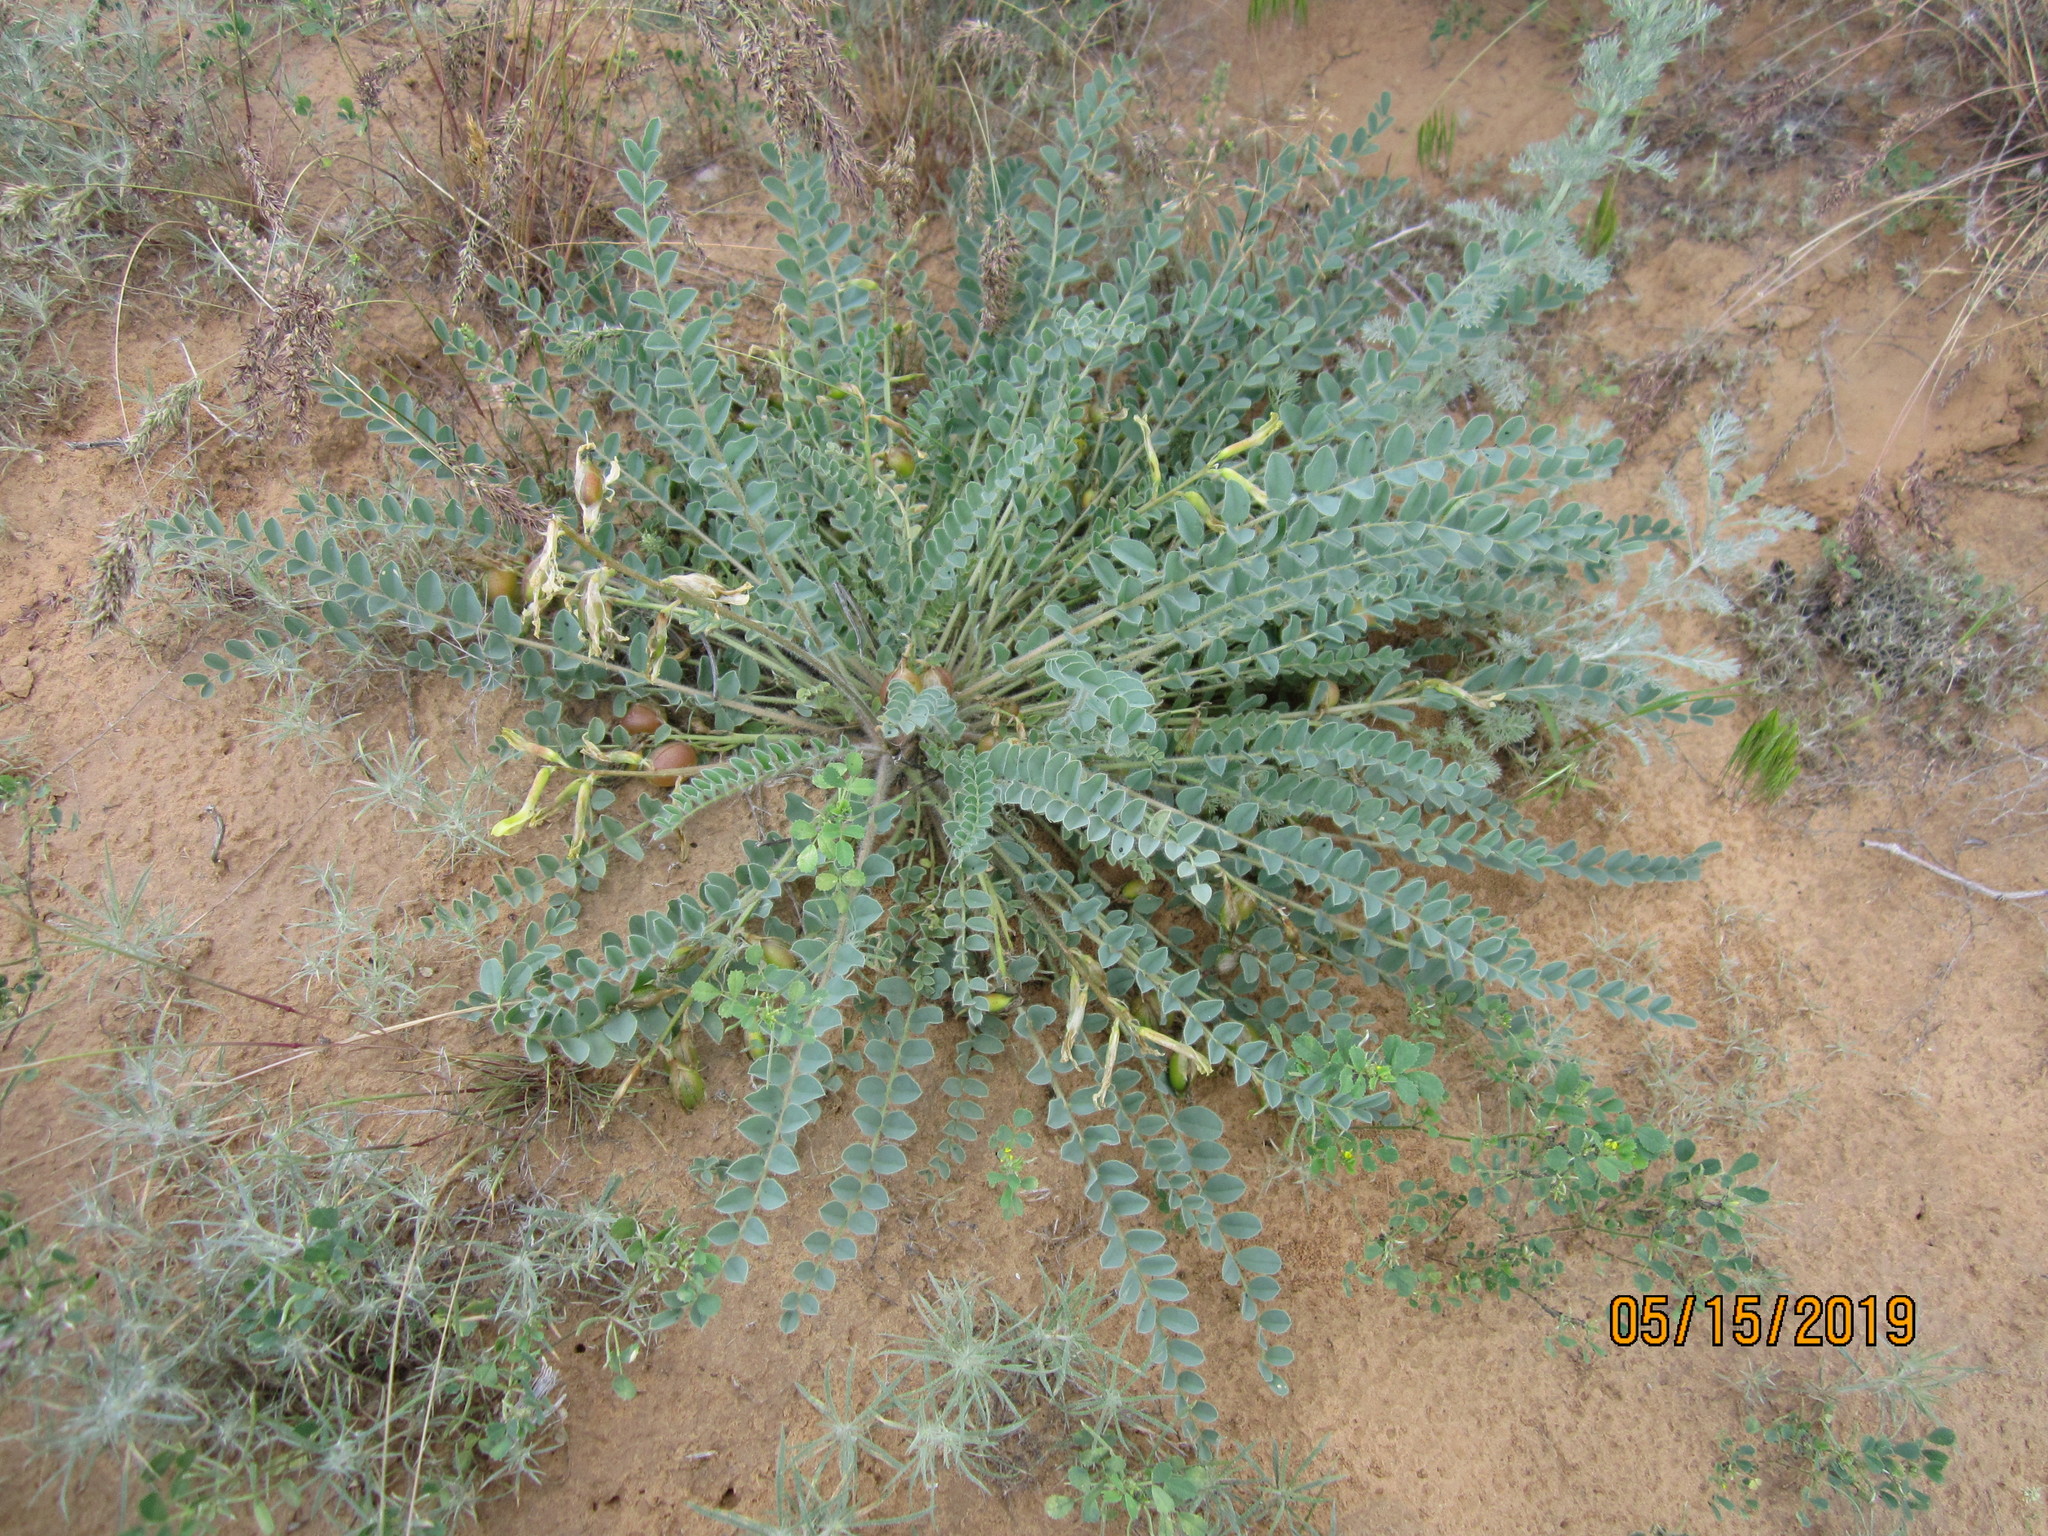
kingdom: Plantae
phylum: Tracheophyta
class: Magnoliopsida
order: Fabales
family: Fabaceae
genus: Astragalus
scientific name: Astragalus longipetalus
